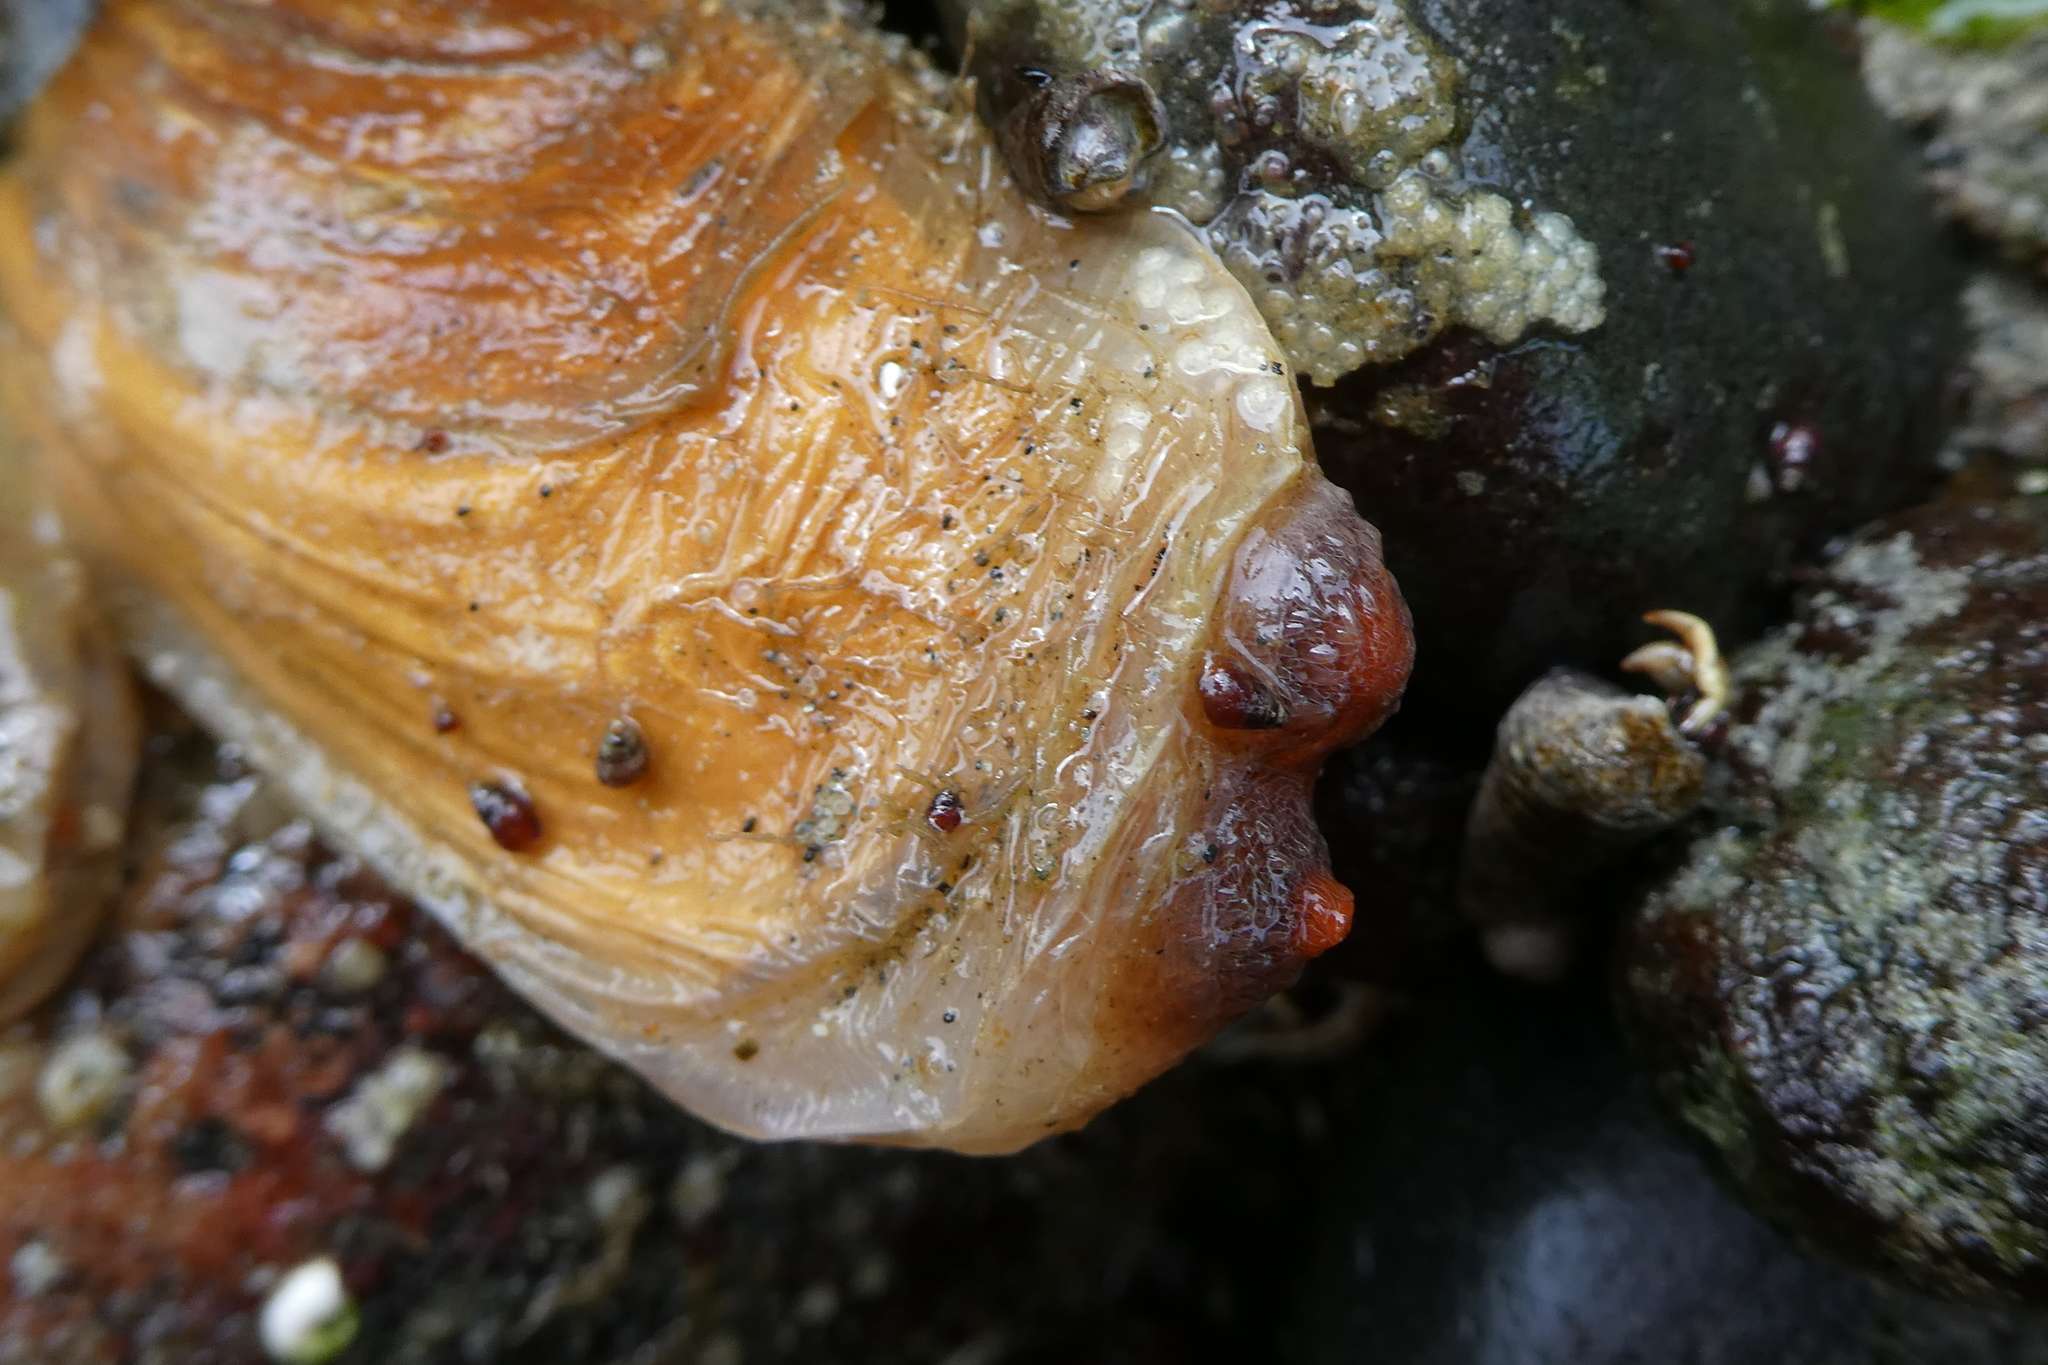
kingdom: Animalia
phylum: Mollusca
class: Bivalvia
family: Lyonsiidae
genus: Entodesma
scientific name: Entodesma navicula
